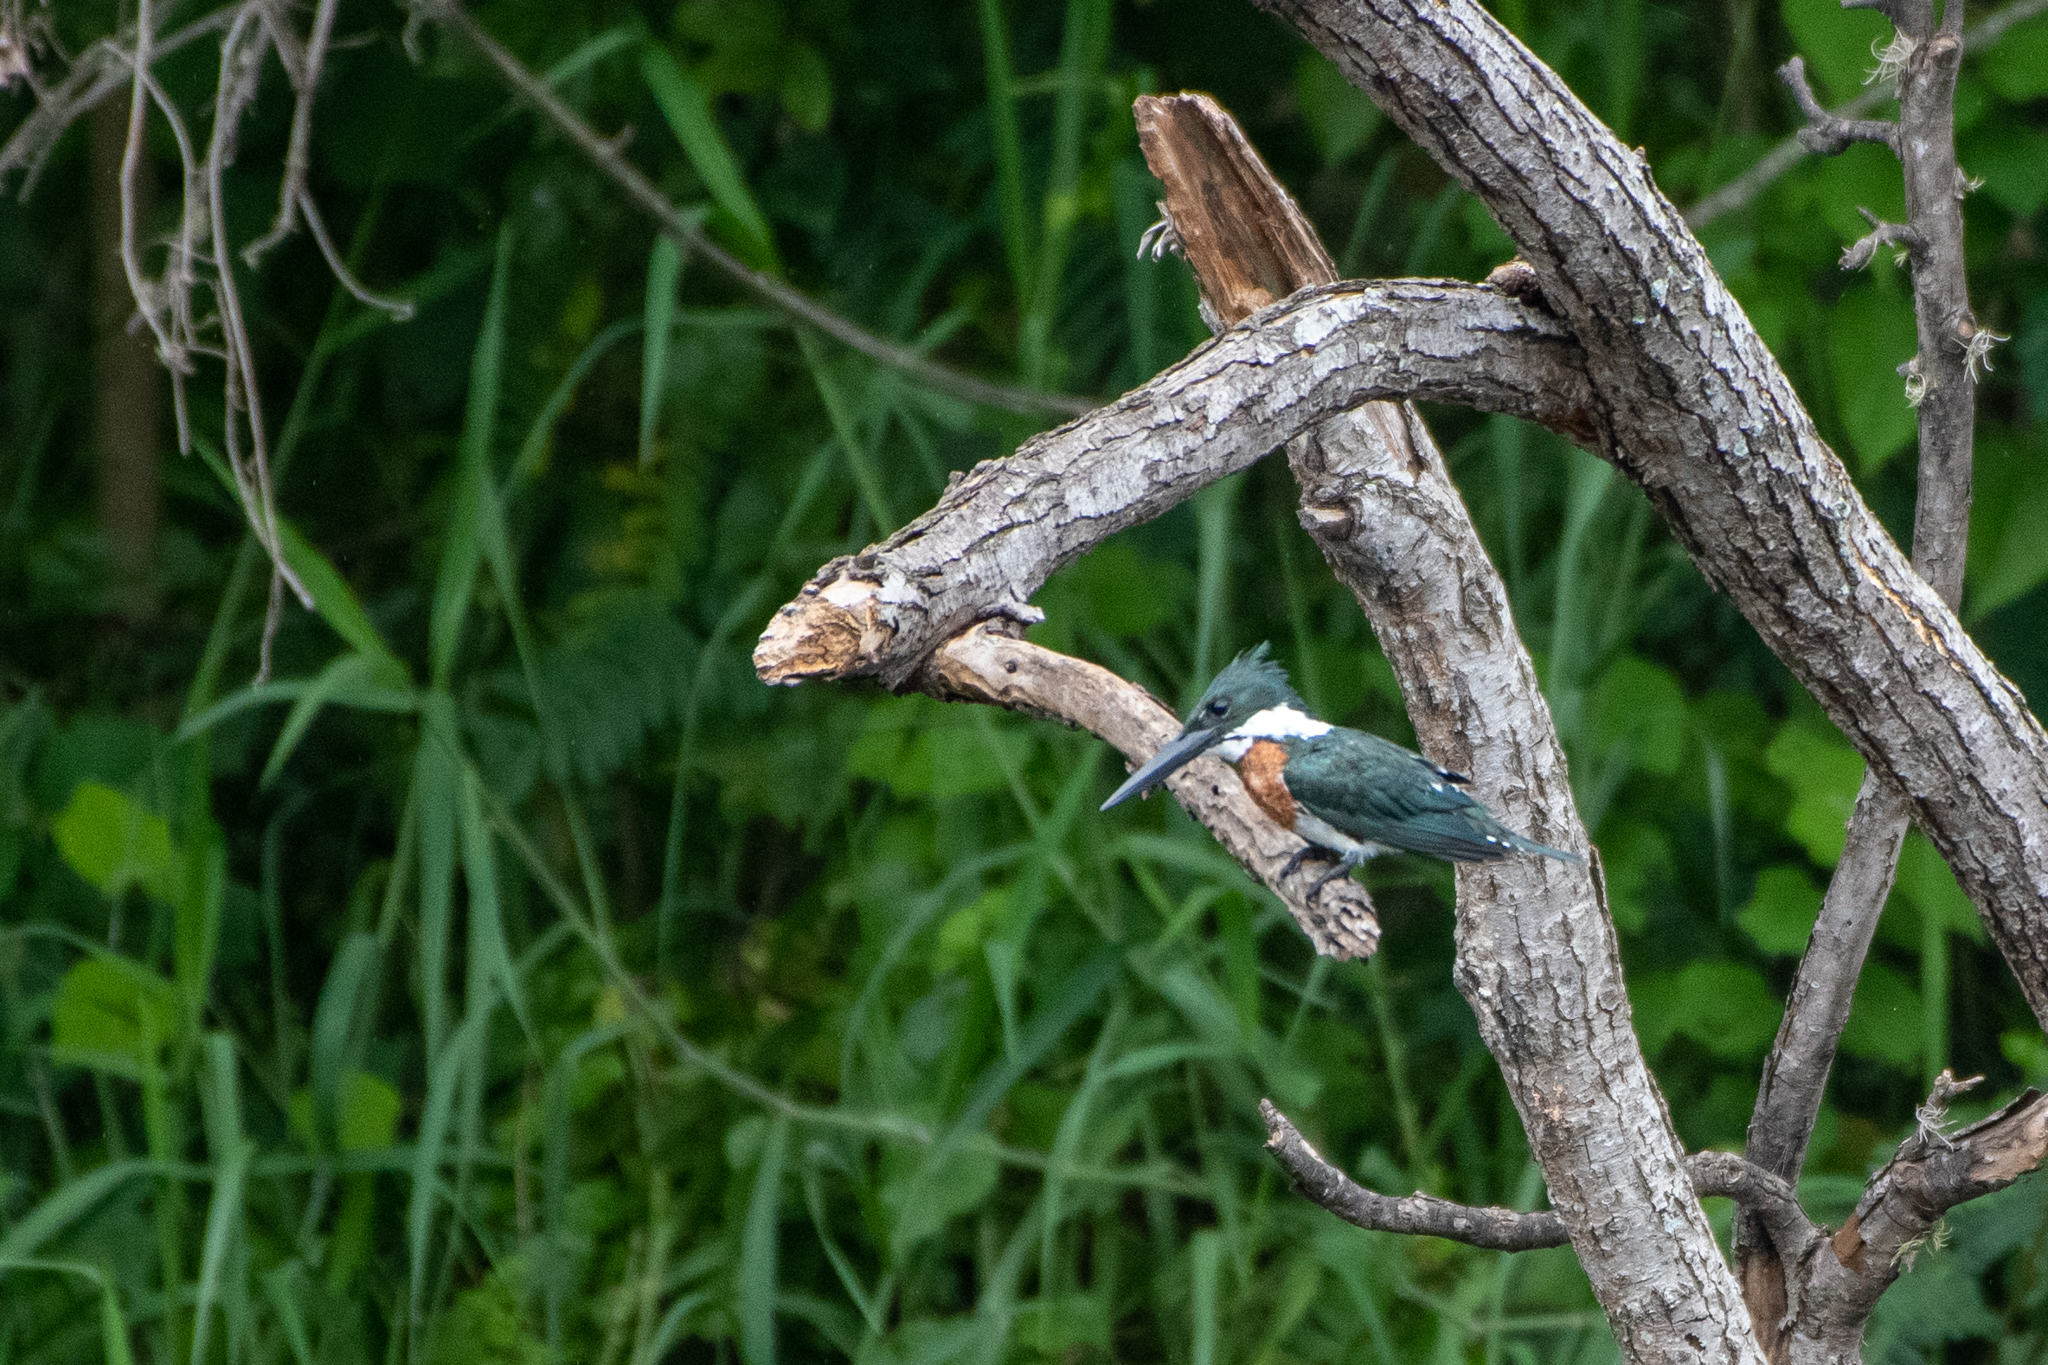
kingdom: Animalia
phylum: Chordata
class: Aves
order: Coraciiformes
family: Alcedinidae
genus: Chloroceryle
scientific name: Chloroceryle amazona
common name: Amazon kingfisher
